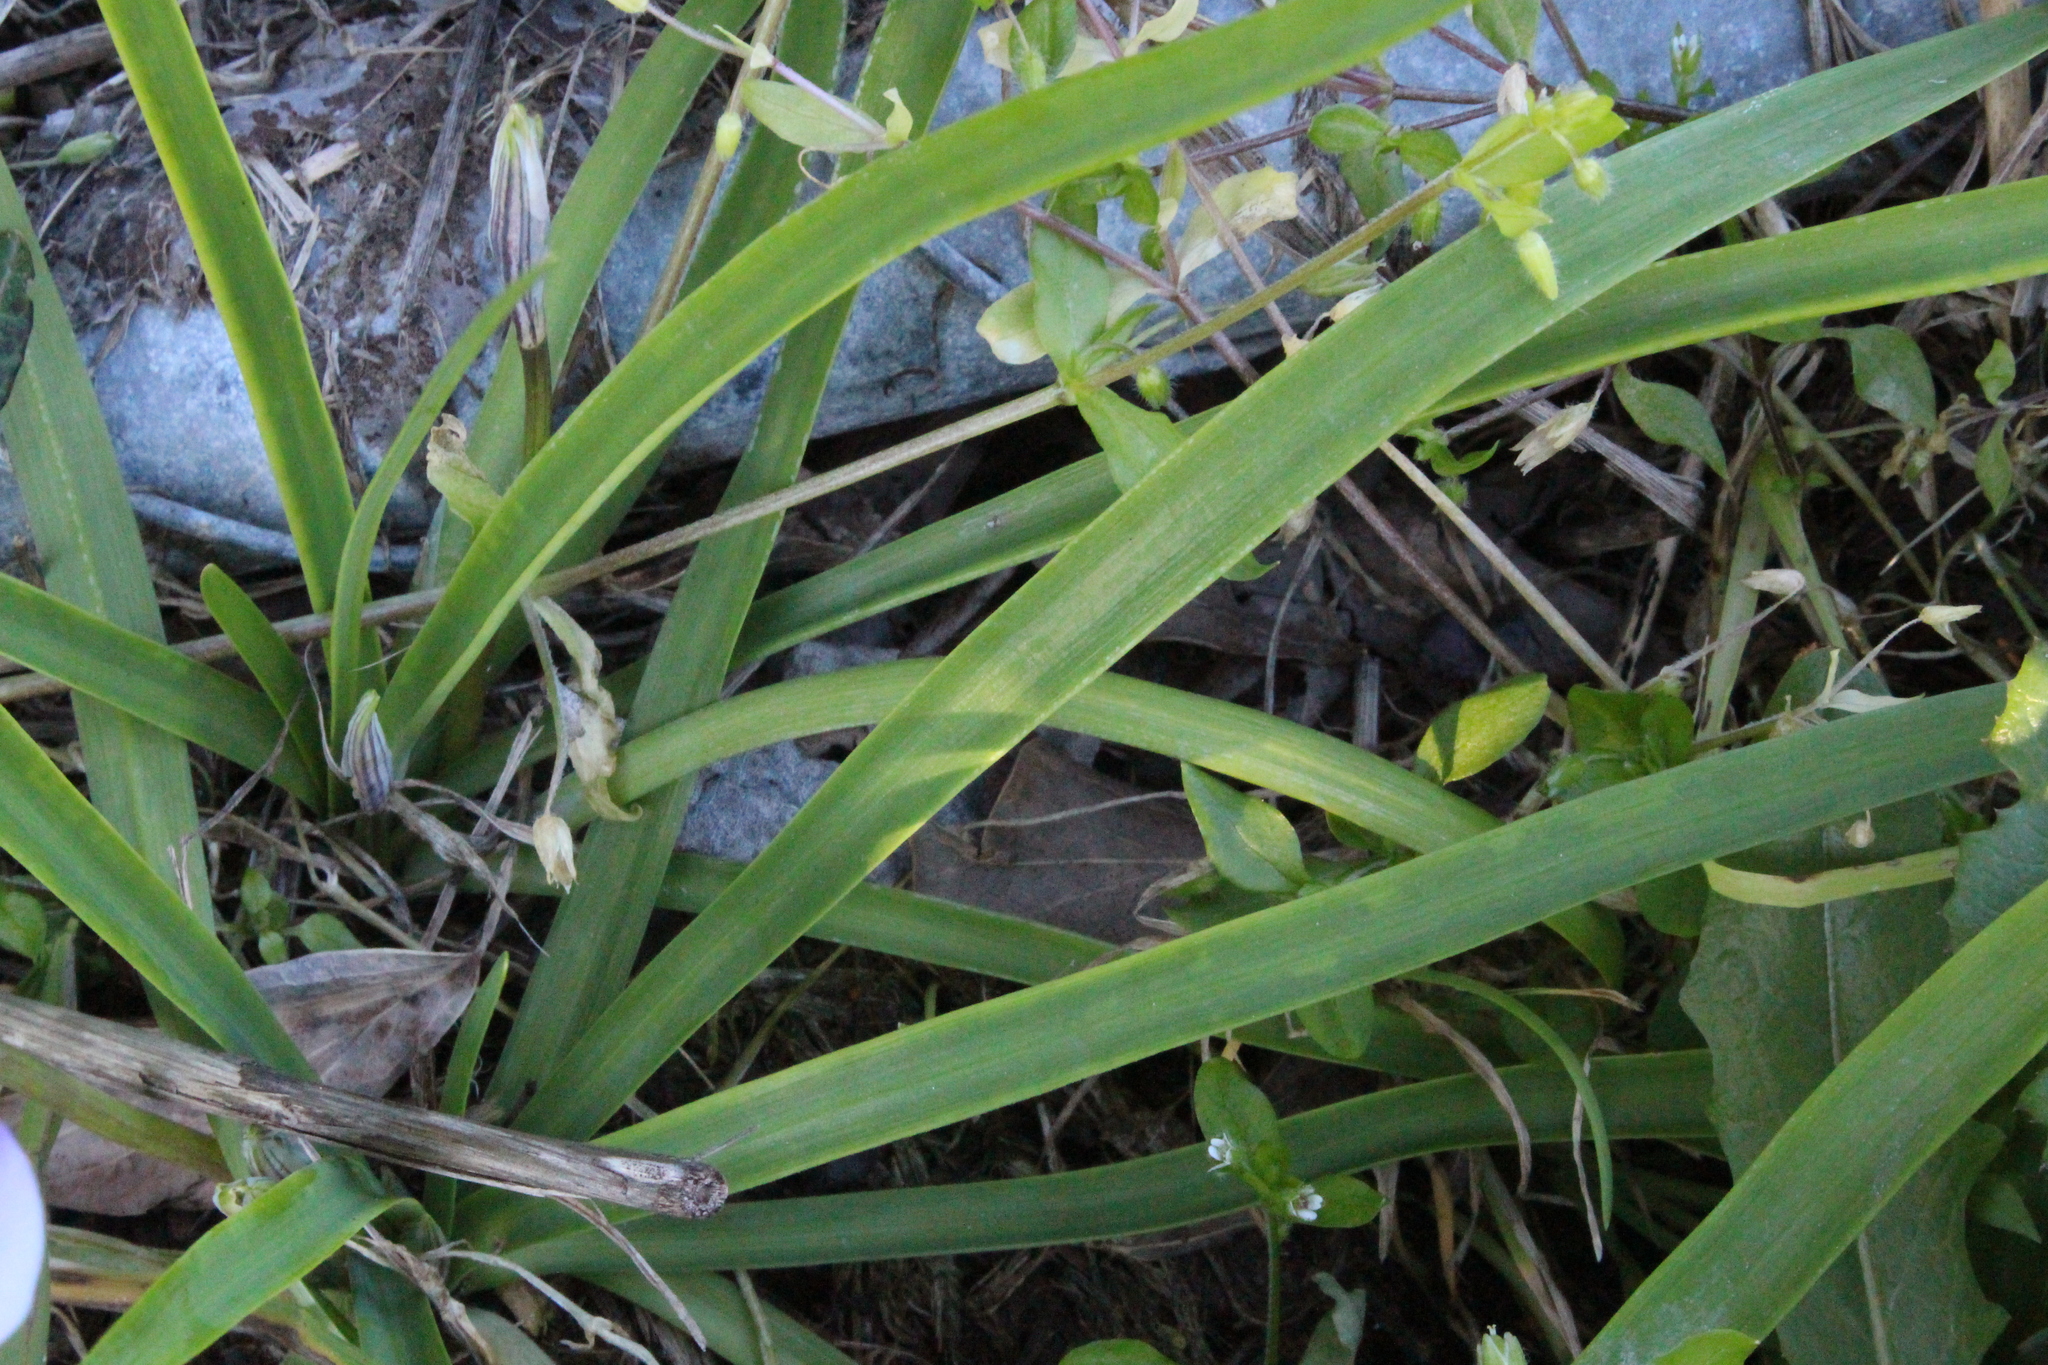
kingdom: Plantae
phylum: Tracheophyta
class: Liliopsida
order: Asparagales
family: Amaryllidaceae
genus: Ipheion
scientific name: Ipheion uniflorum
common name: Spring starflower
